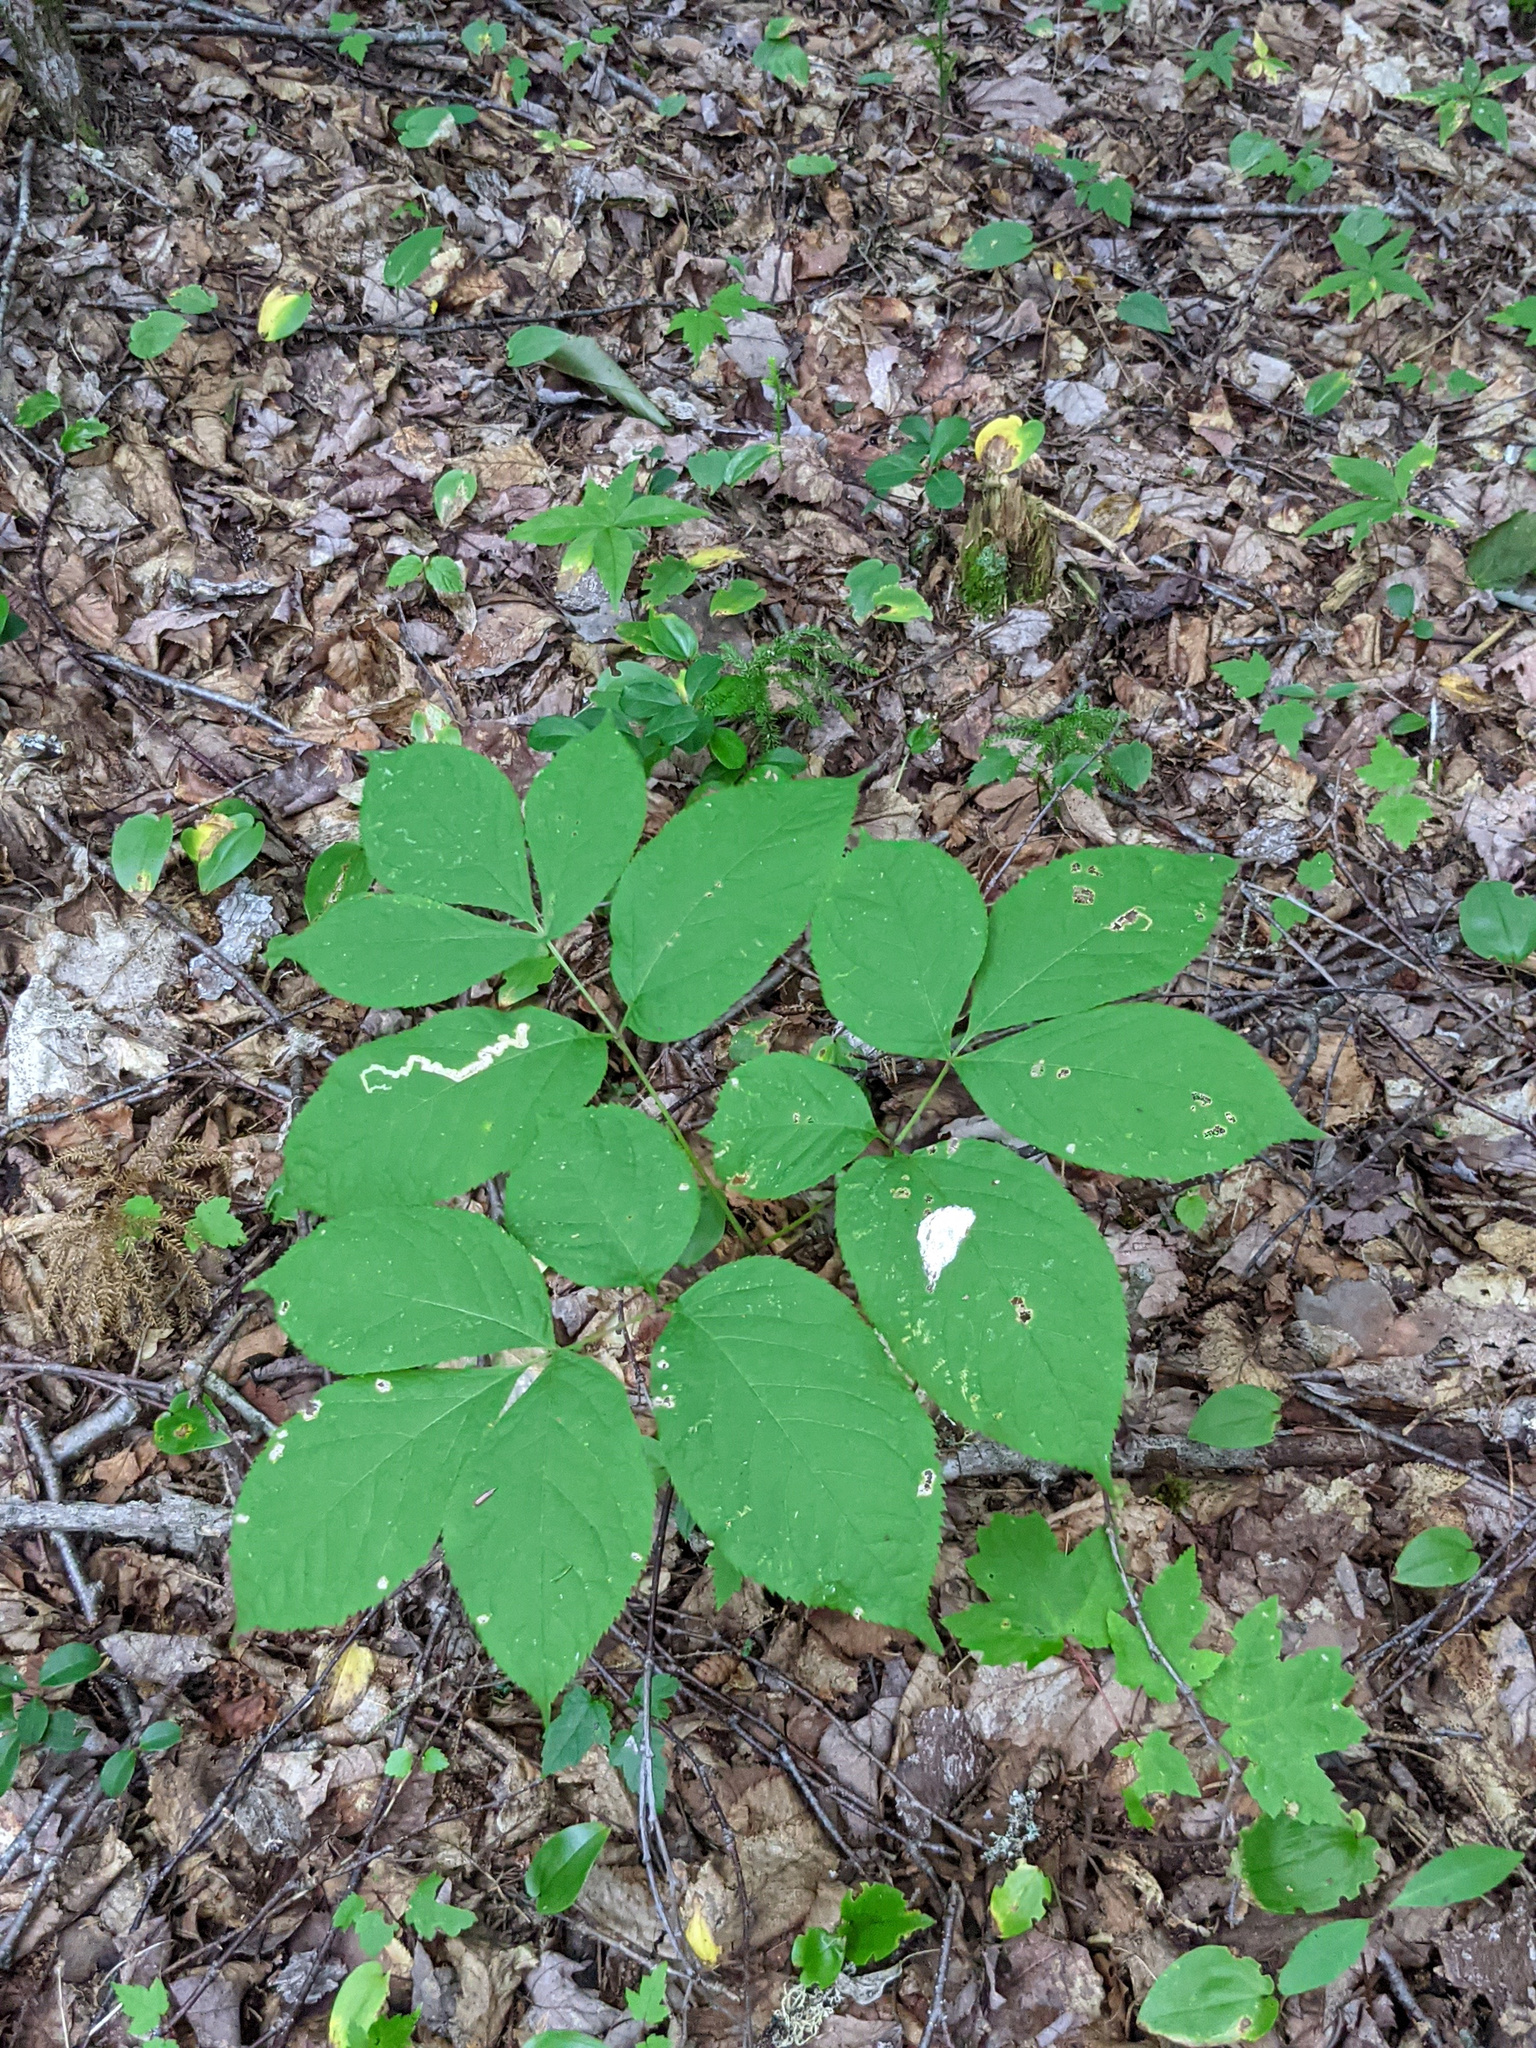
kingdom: Plantae
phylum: Tracheophyta
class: Magnoliopsida
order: Apiales
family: Araliaceae
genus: Aralia
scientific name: Aralia nudicaulis
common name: Wild sarsaparilla
